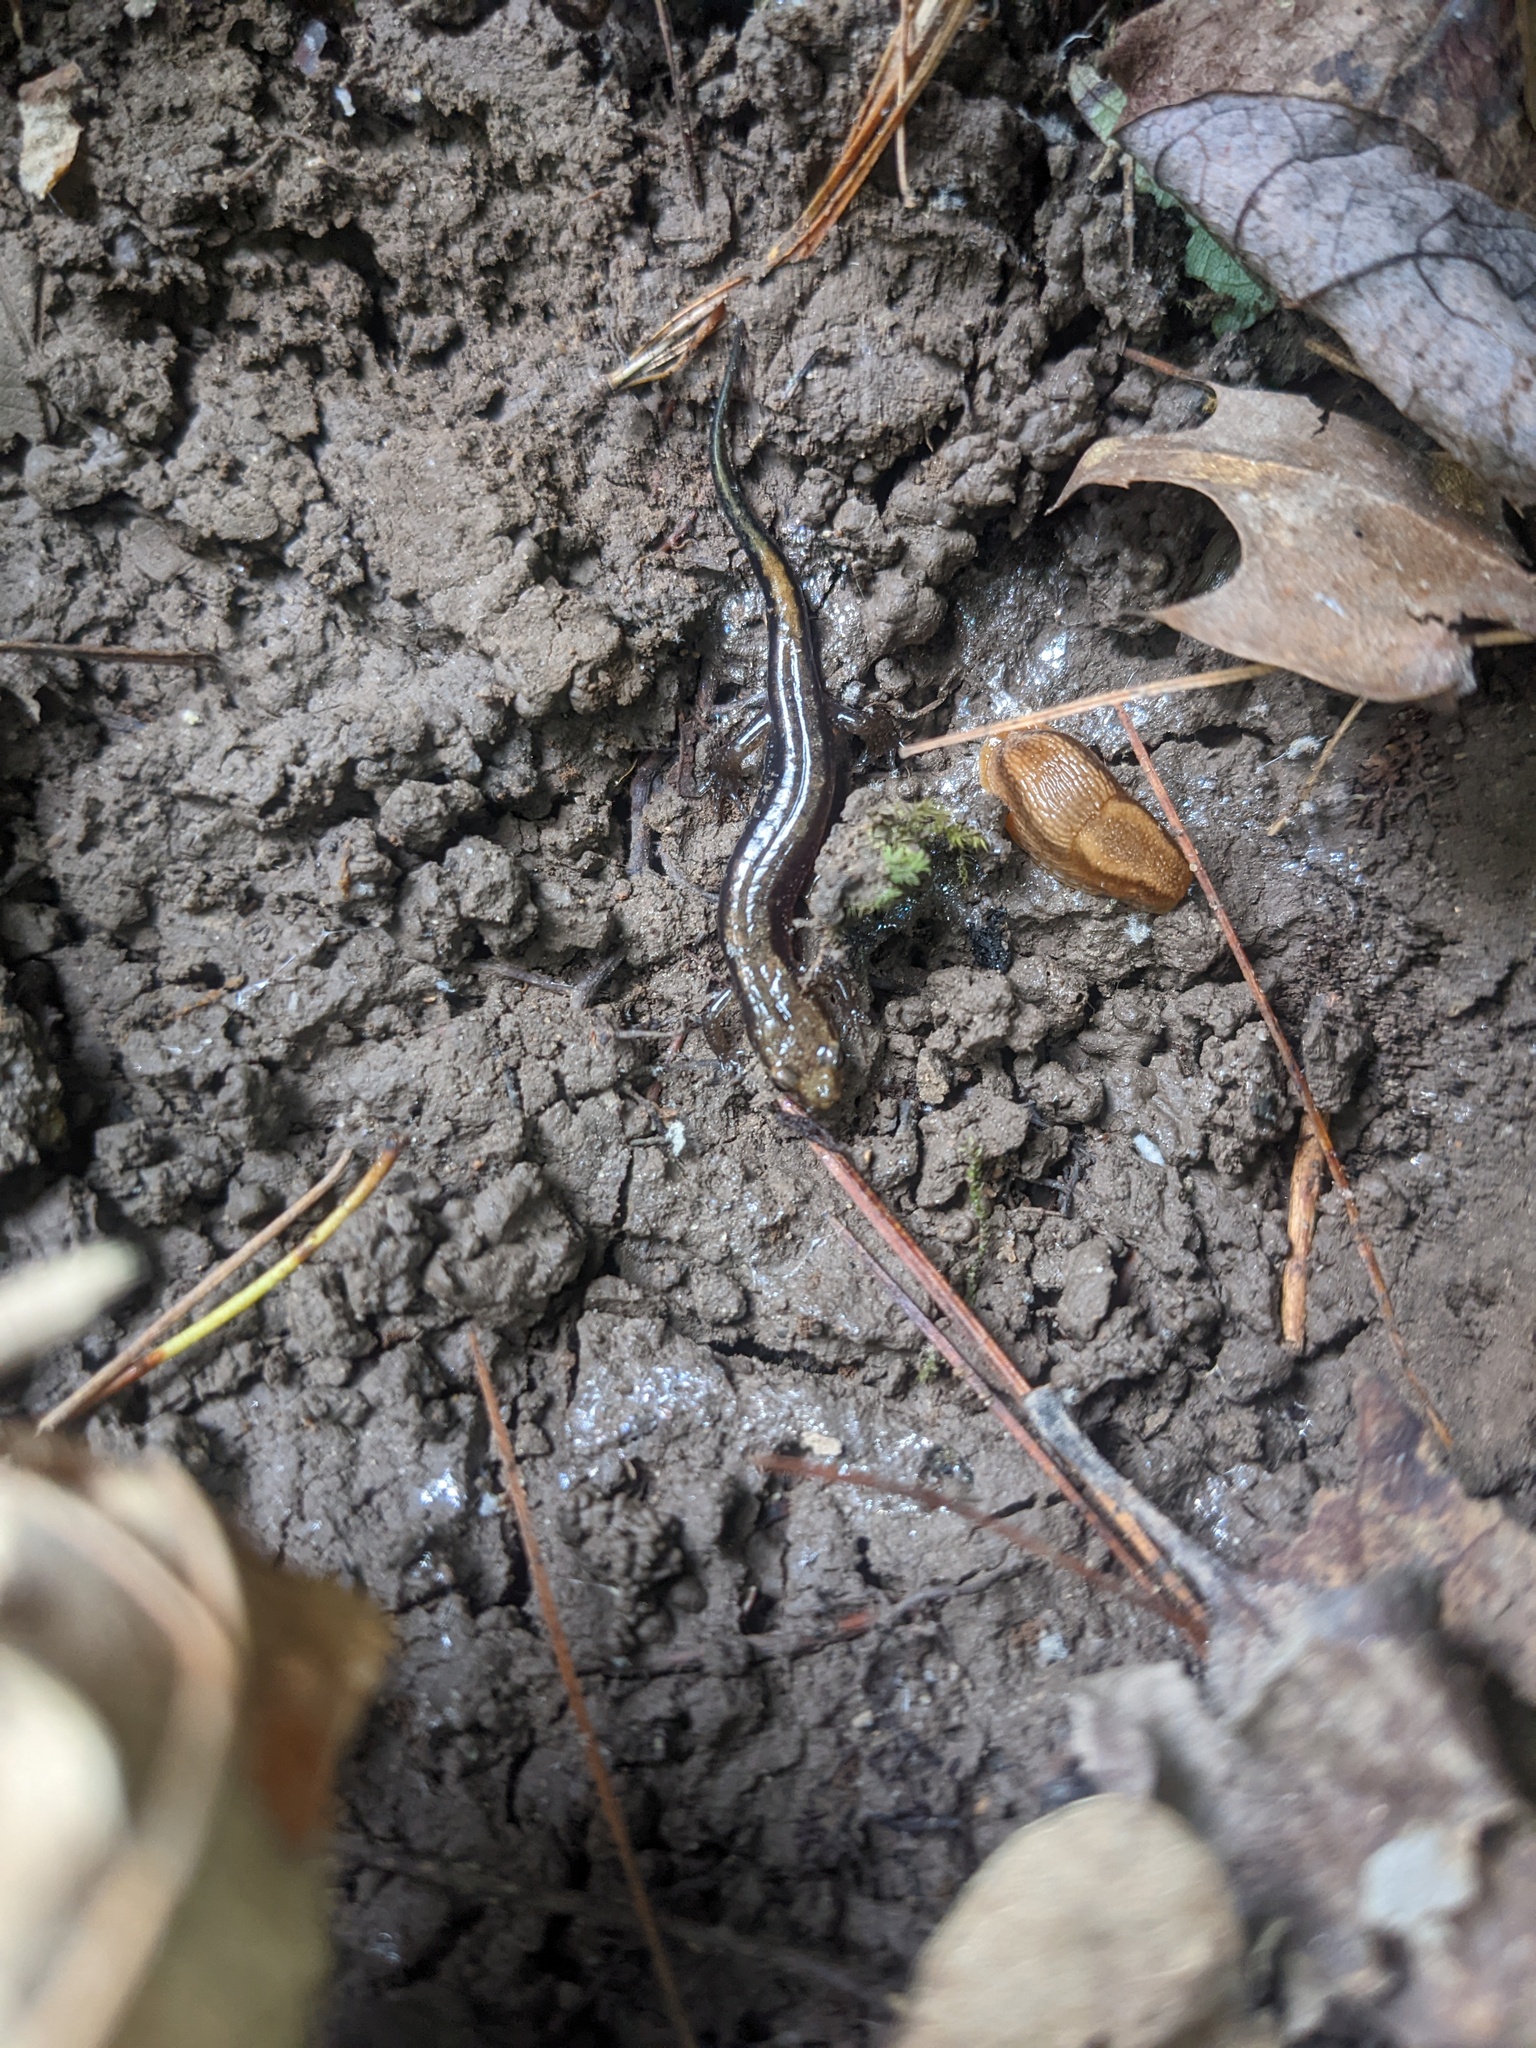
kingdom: Animalia
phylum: Chordata
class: Amphibia
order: Caudata
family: Plethodontidae
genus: Desmognathus
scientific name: Desmognathus ochrophaeus
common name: Allegheny mountain dusky salamander
